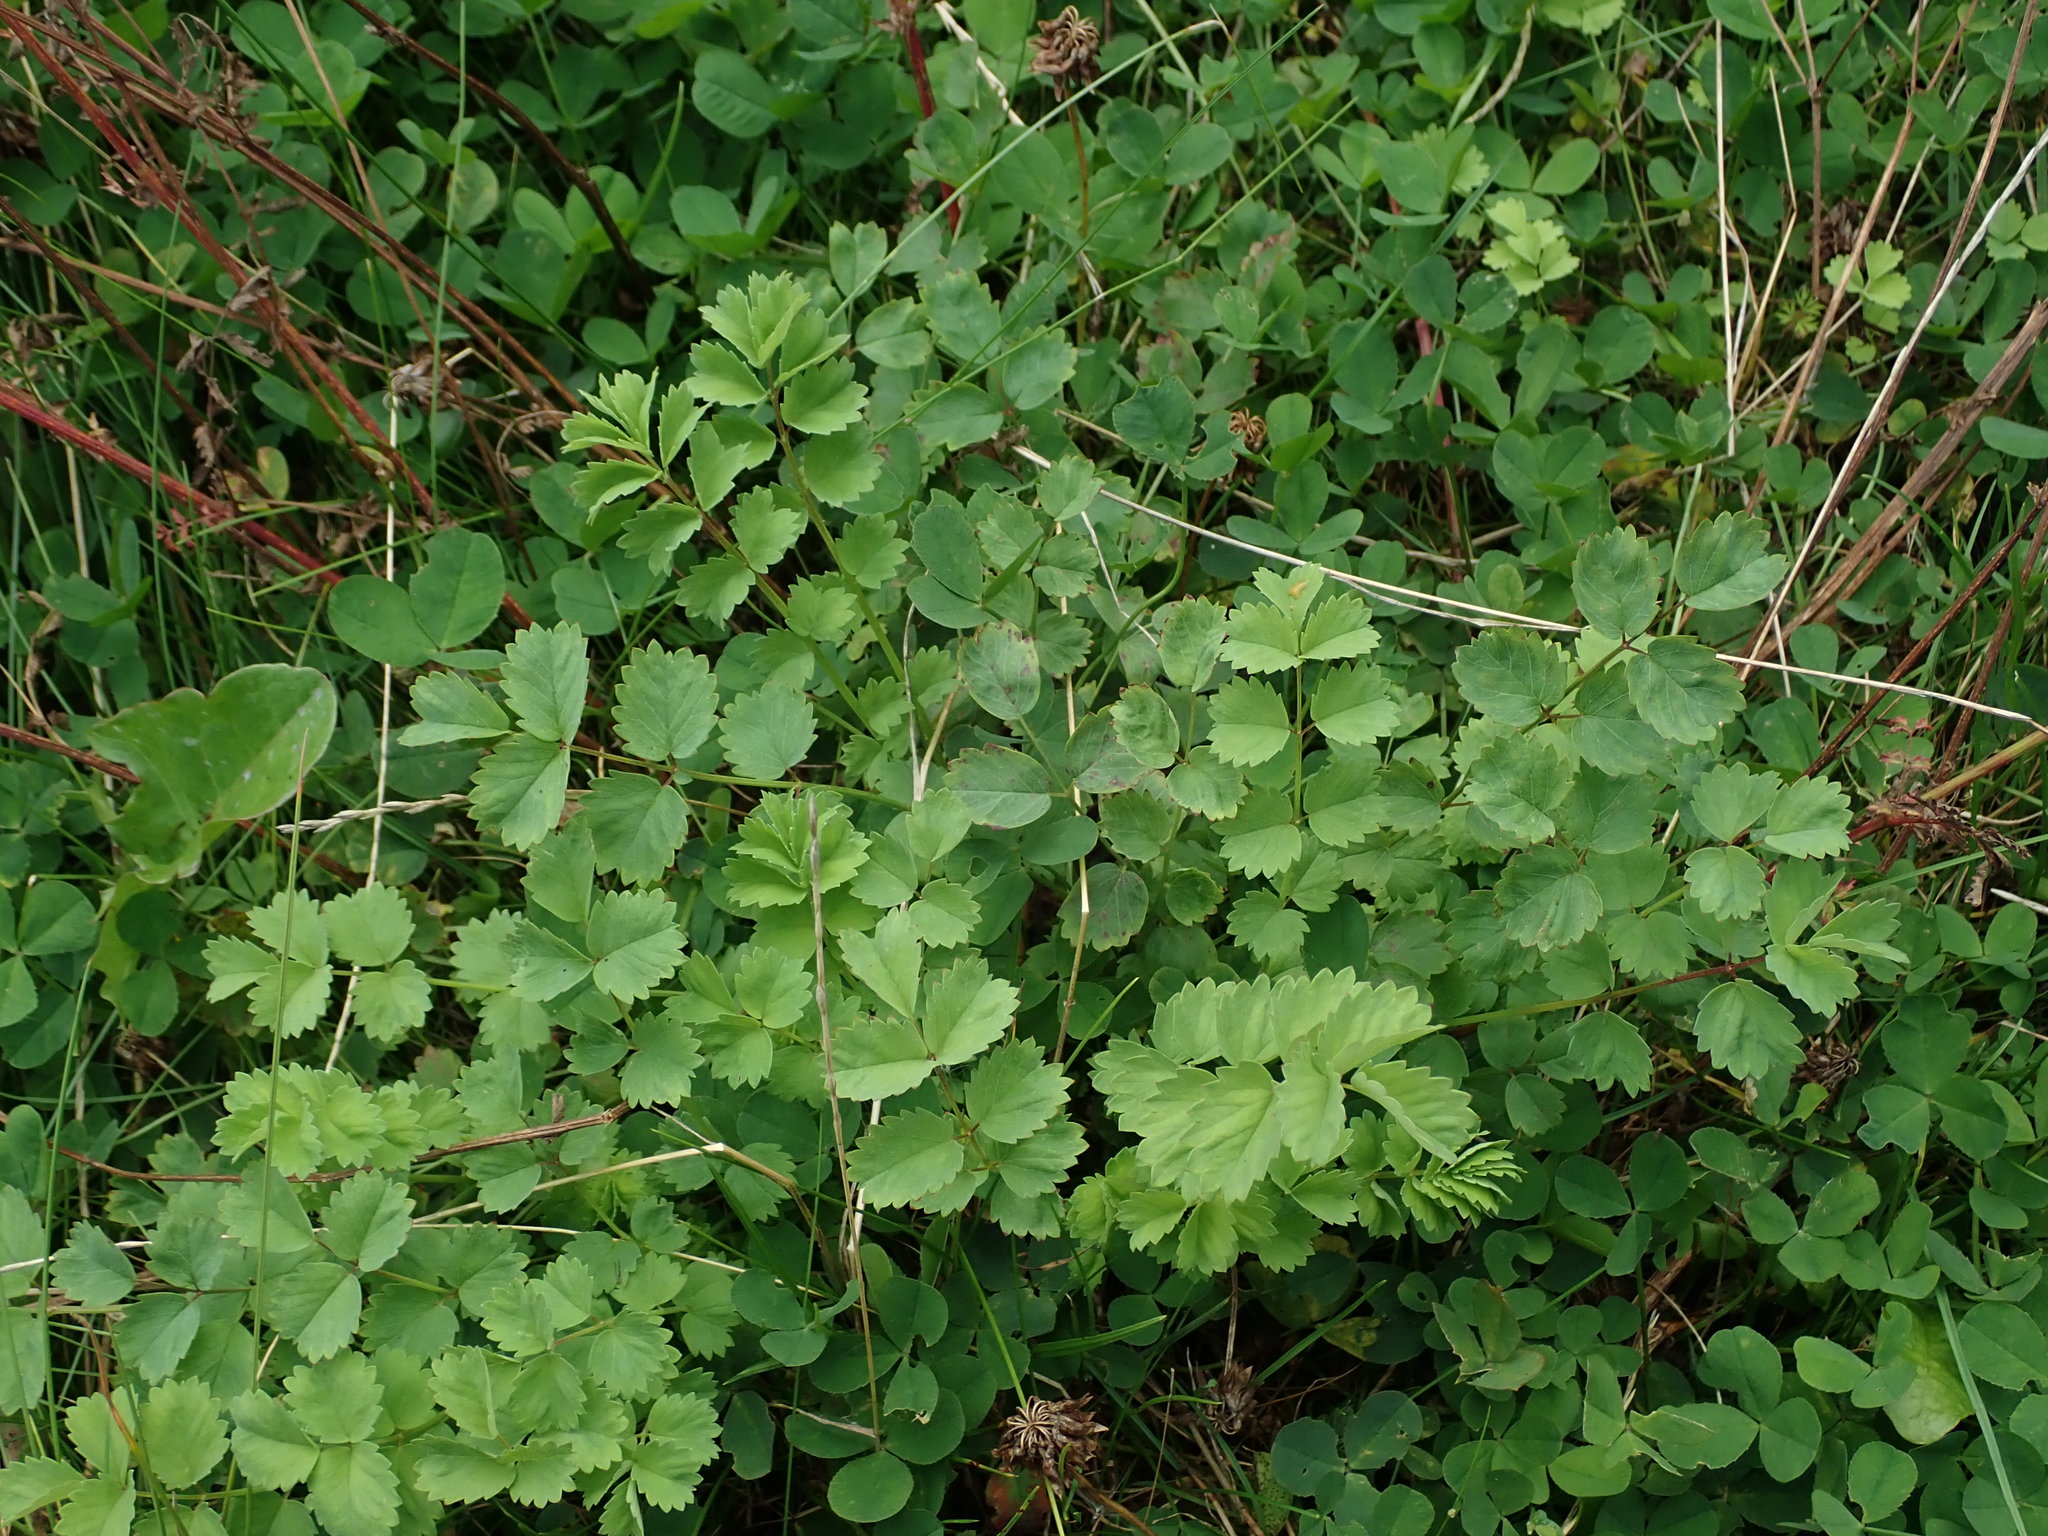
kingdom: Plantae
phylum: Tracheophyta
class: Magnoliopsida
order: Rosales
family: Rosaceae
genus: Poterium
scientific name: Poterium sanguisorba
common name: Salad burnet
